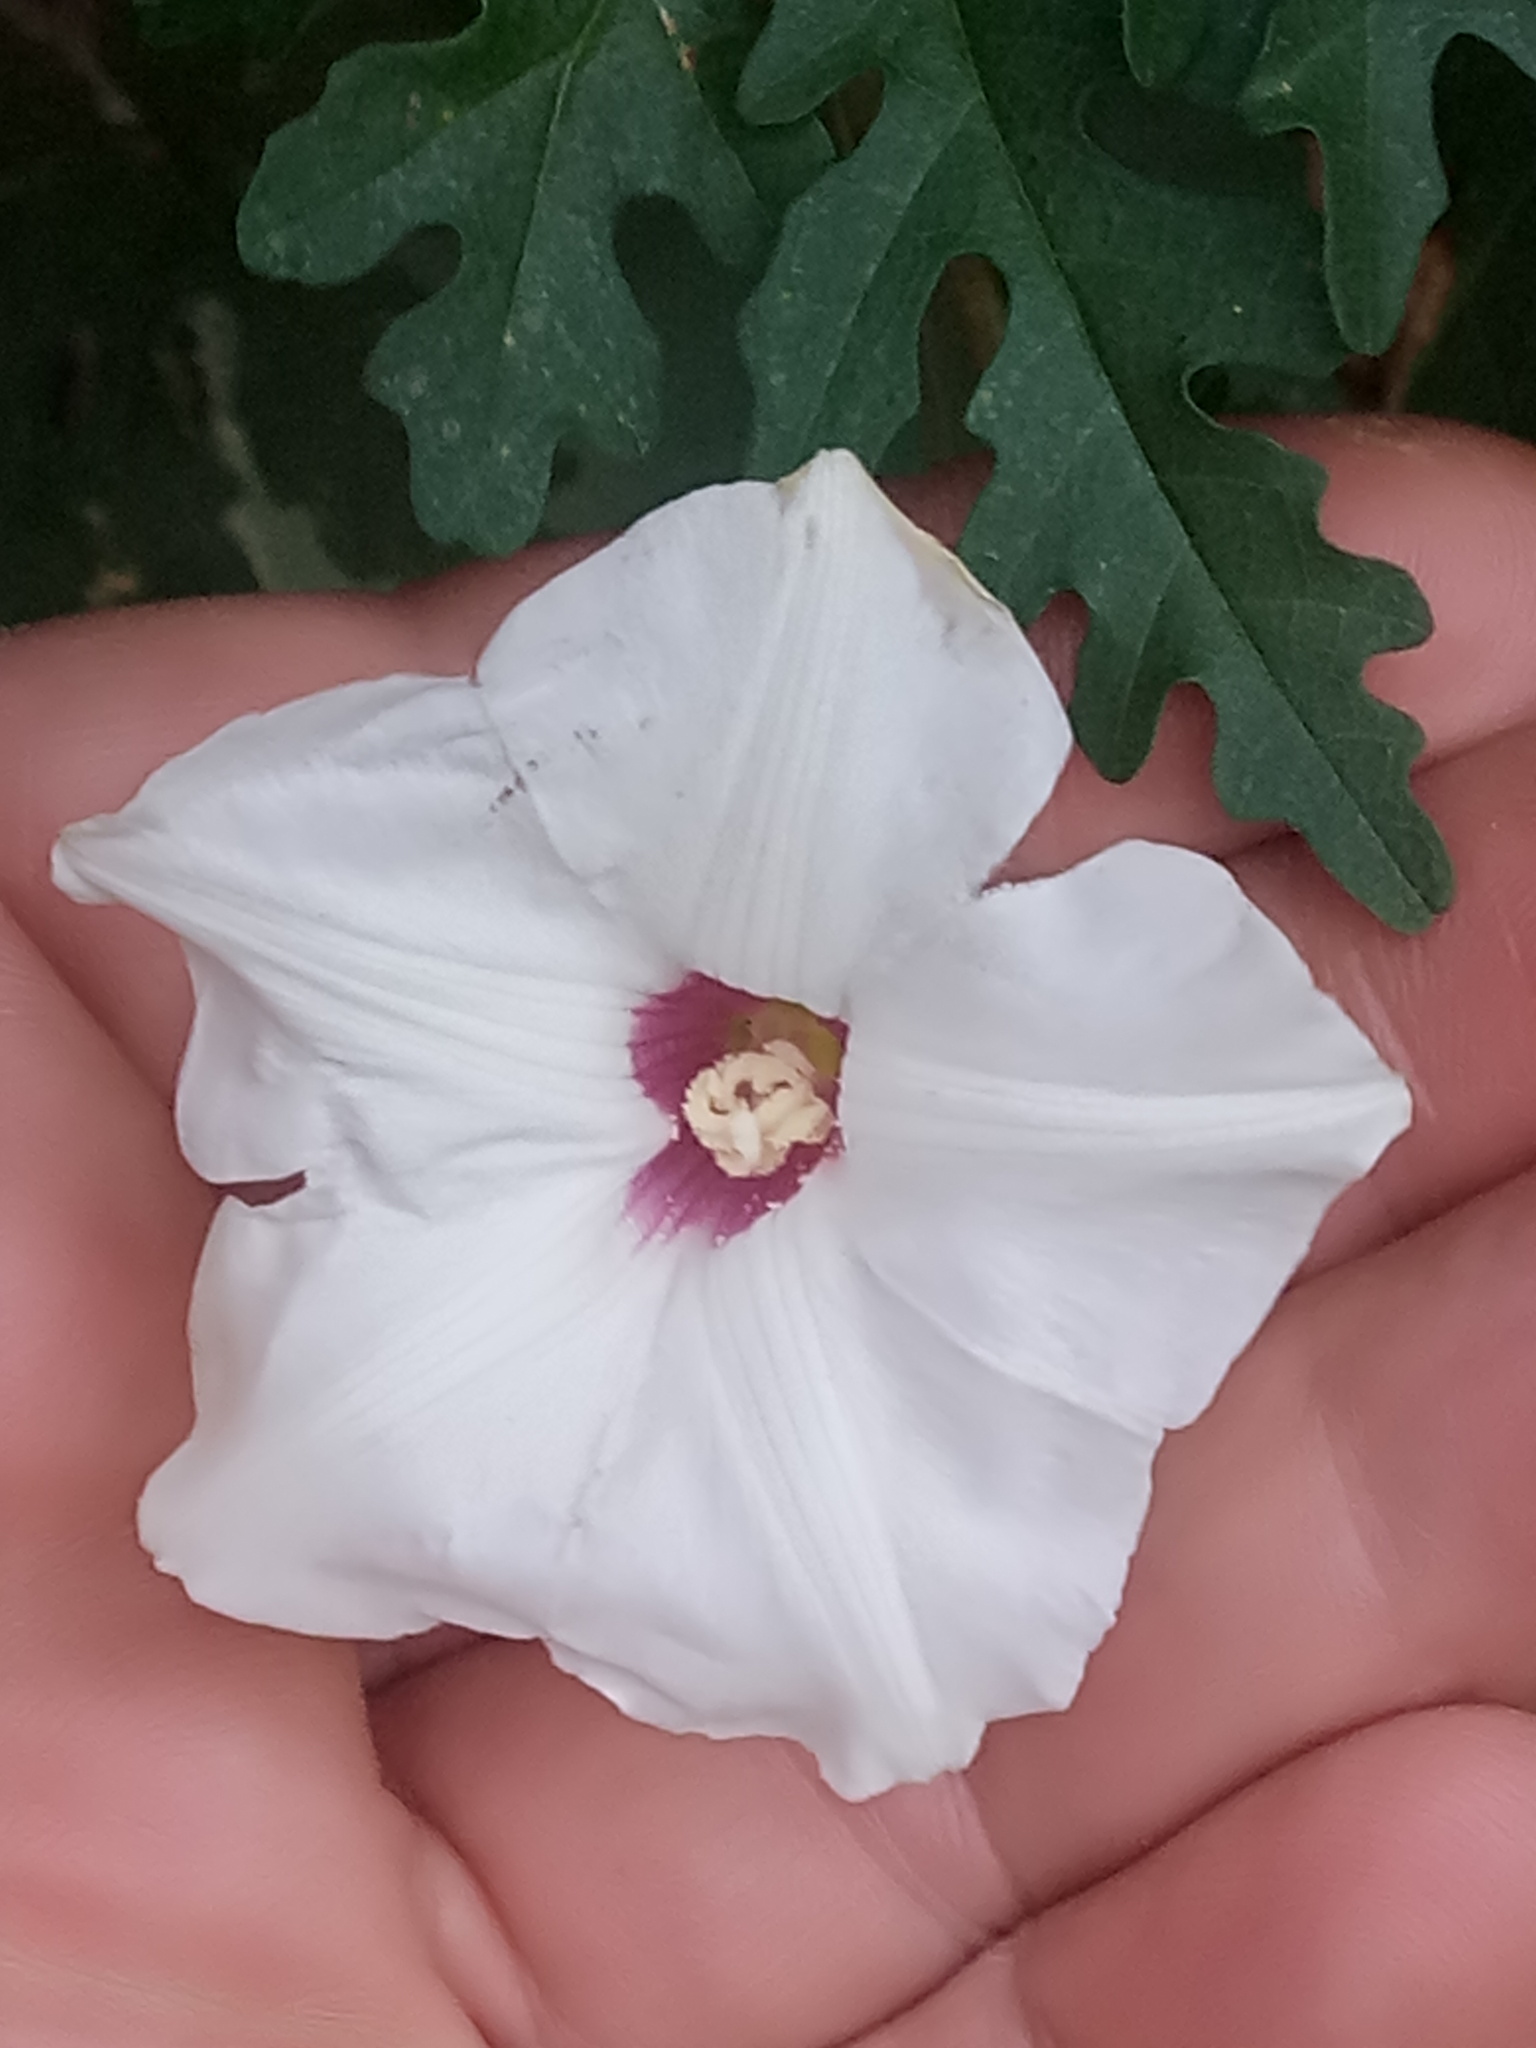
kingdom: Plantae
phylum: Tracheophyta
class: Magnoliopsida
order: Solanales
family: Convolvulaceae
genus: Distimake
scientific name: Distimake dissectus
